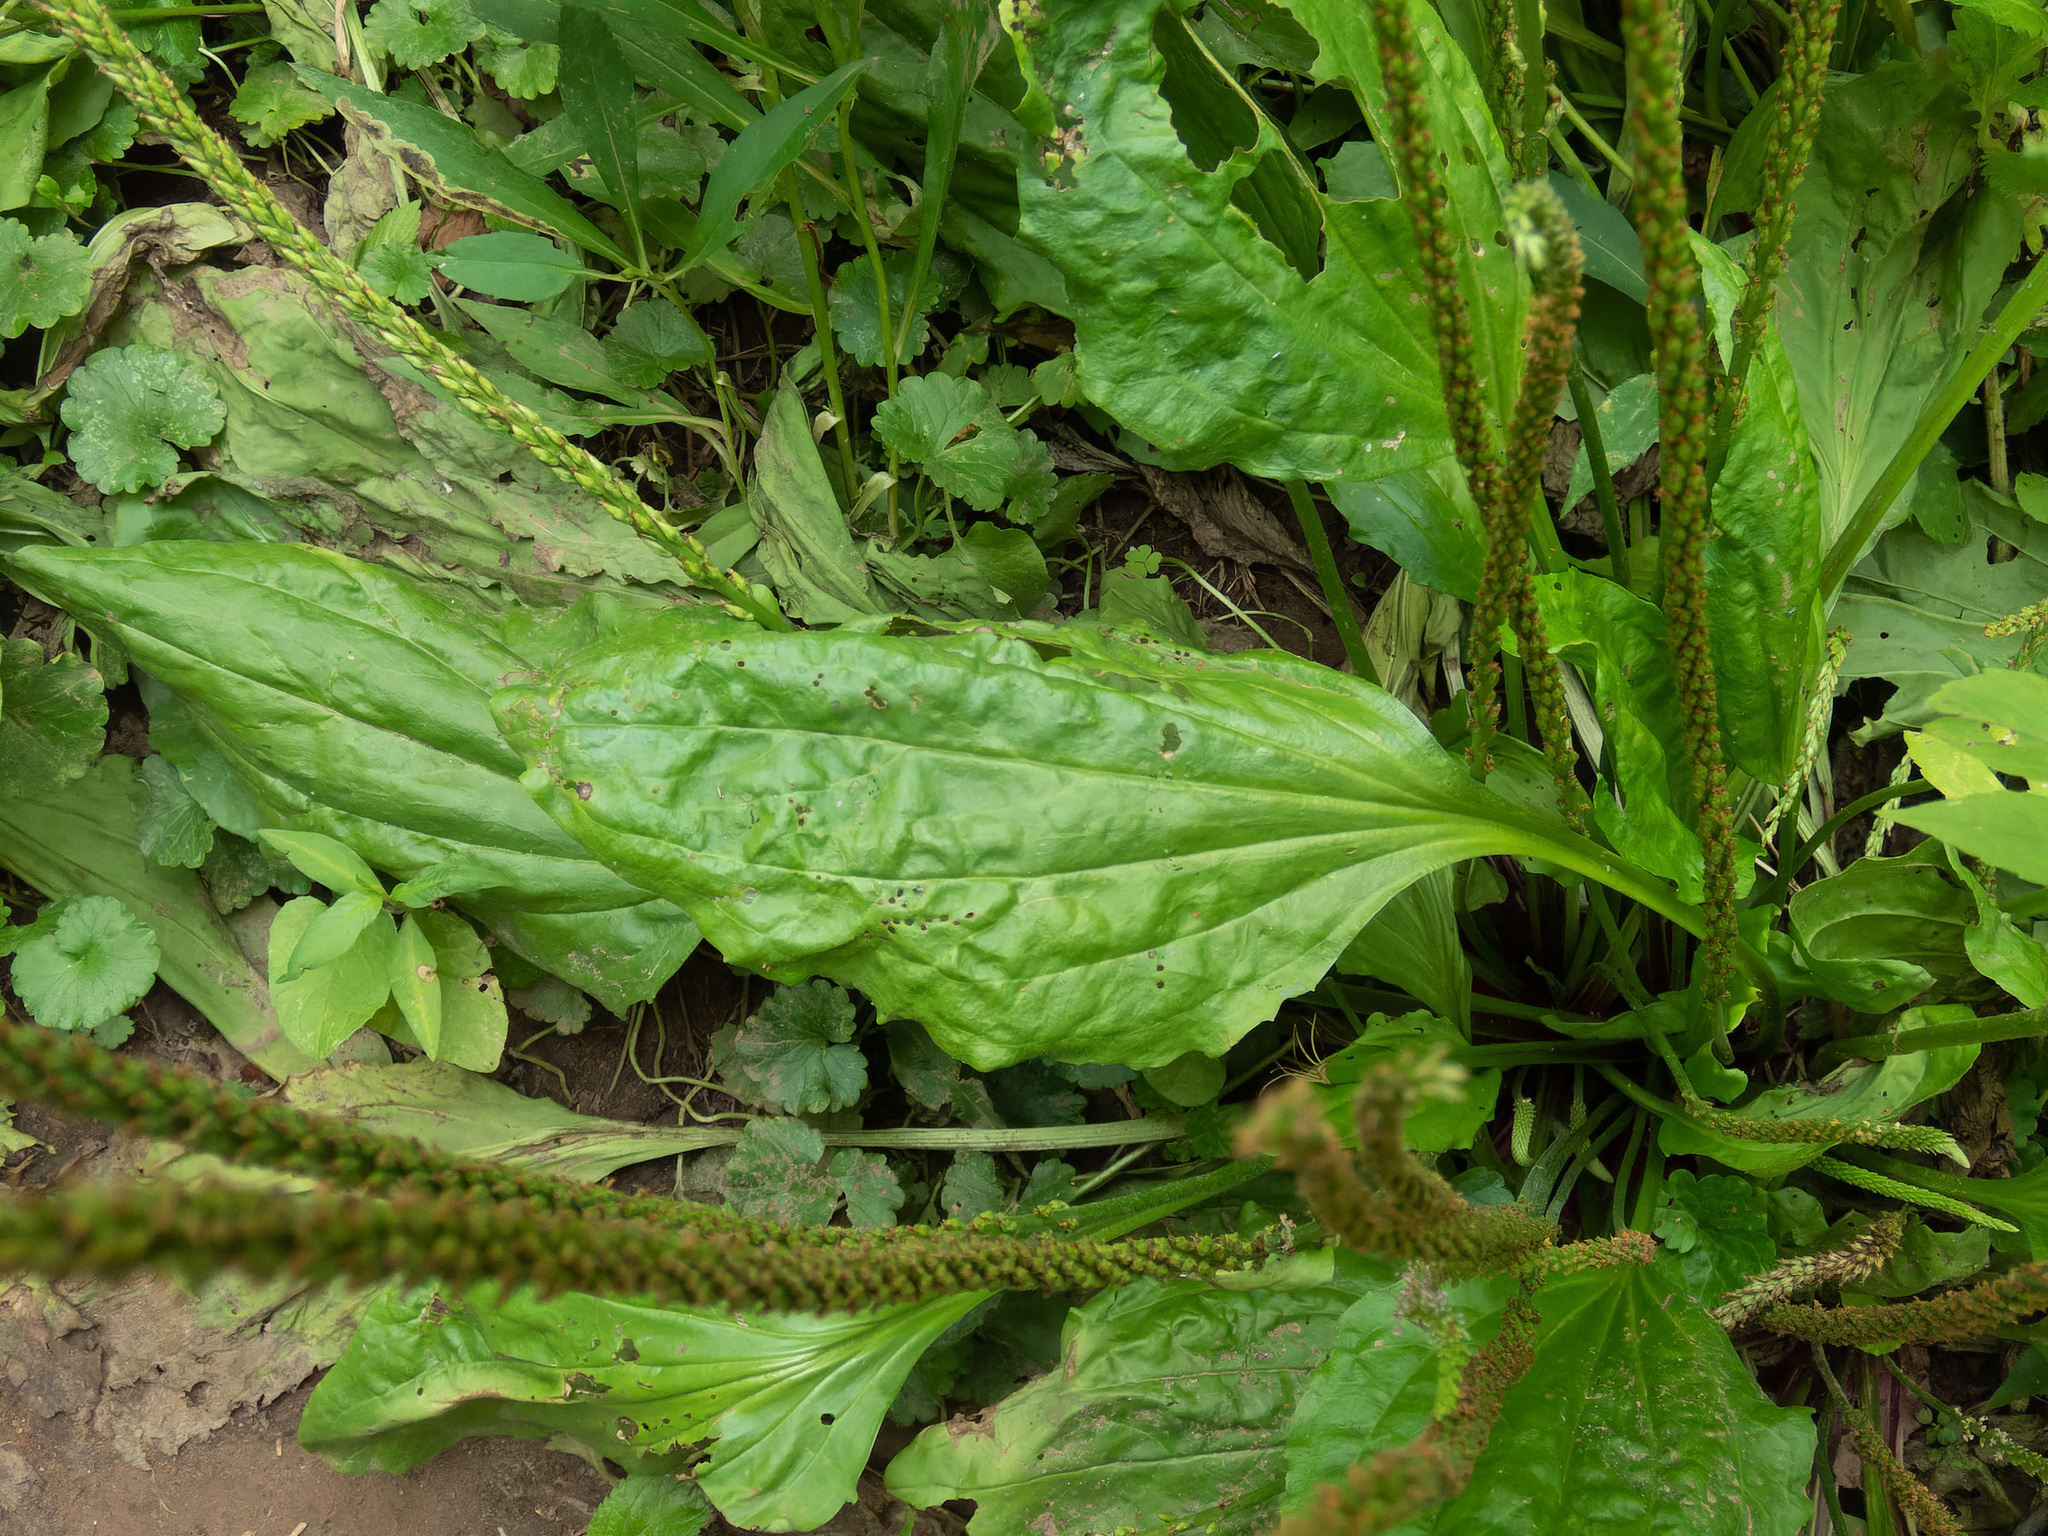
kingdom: Plantae
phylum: Tracheophyta
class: Magnoliopsida
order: Lamiales
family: Plantaginaceae
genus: Plantago
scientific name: Plantago major
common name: Common plantain
